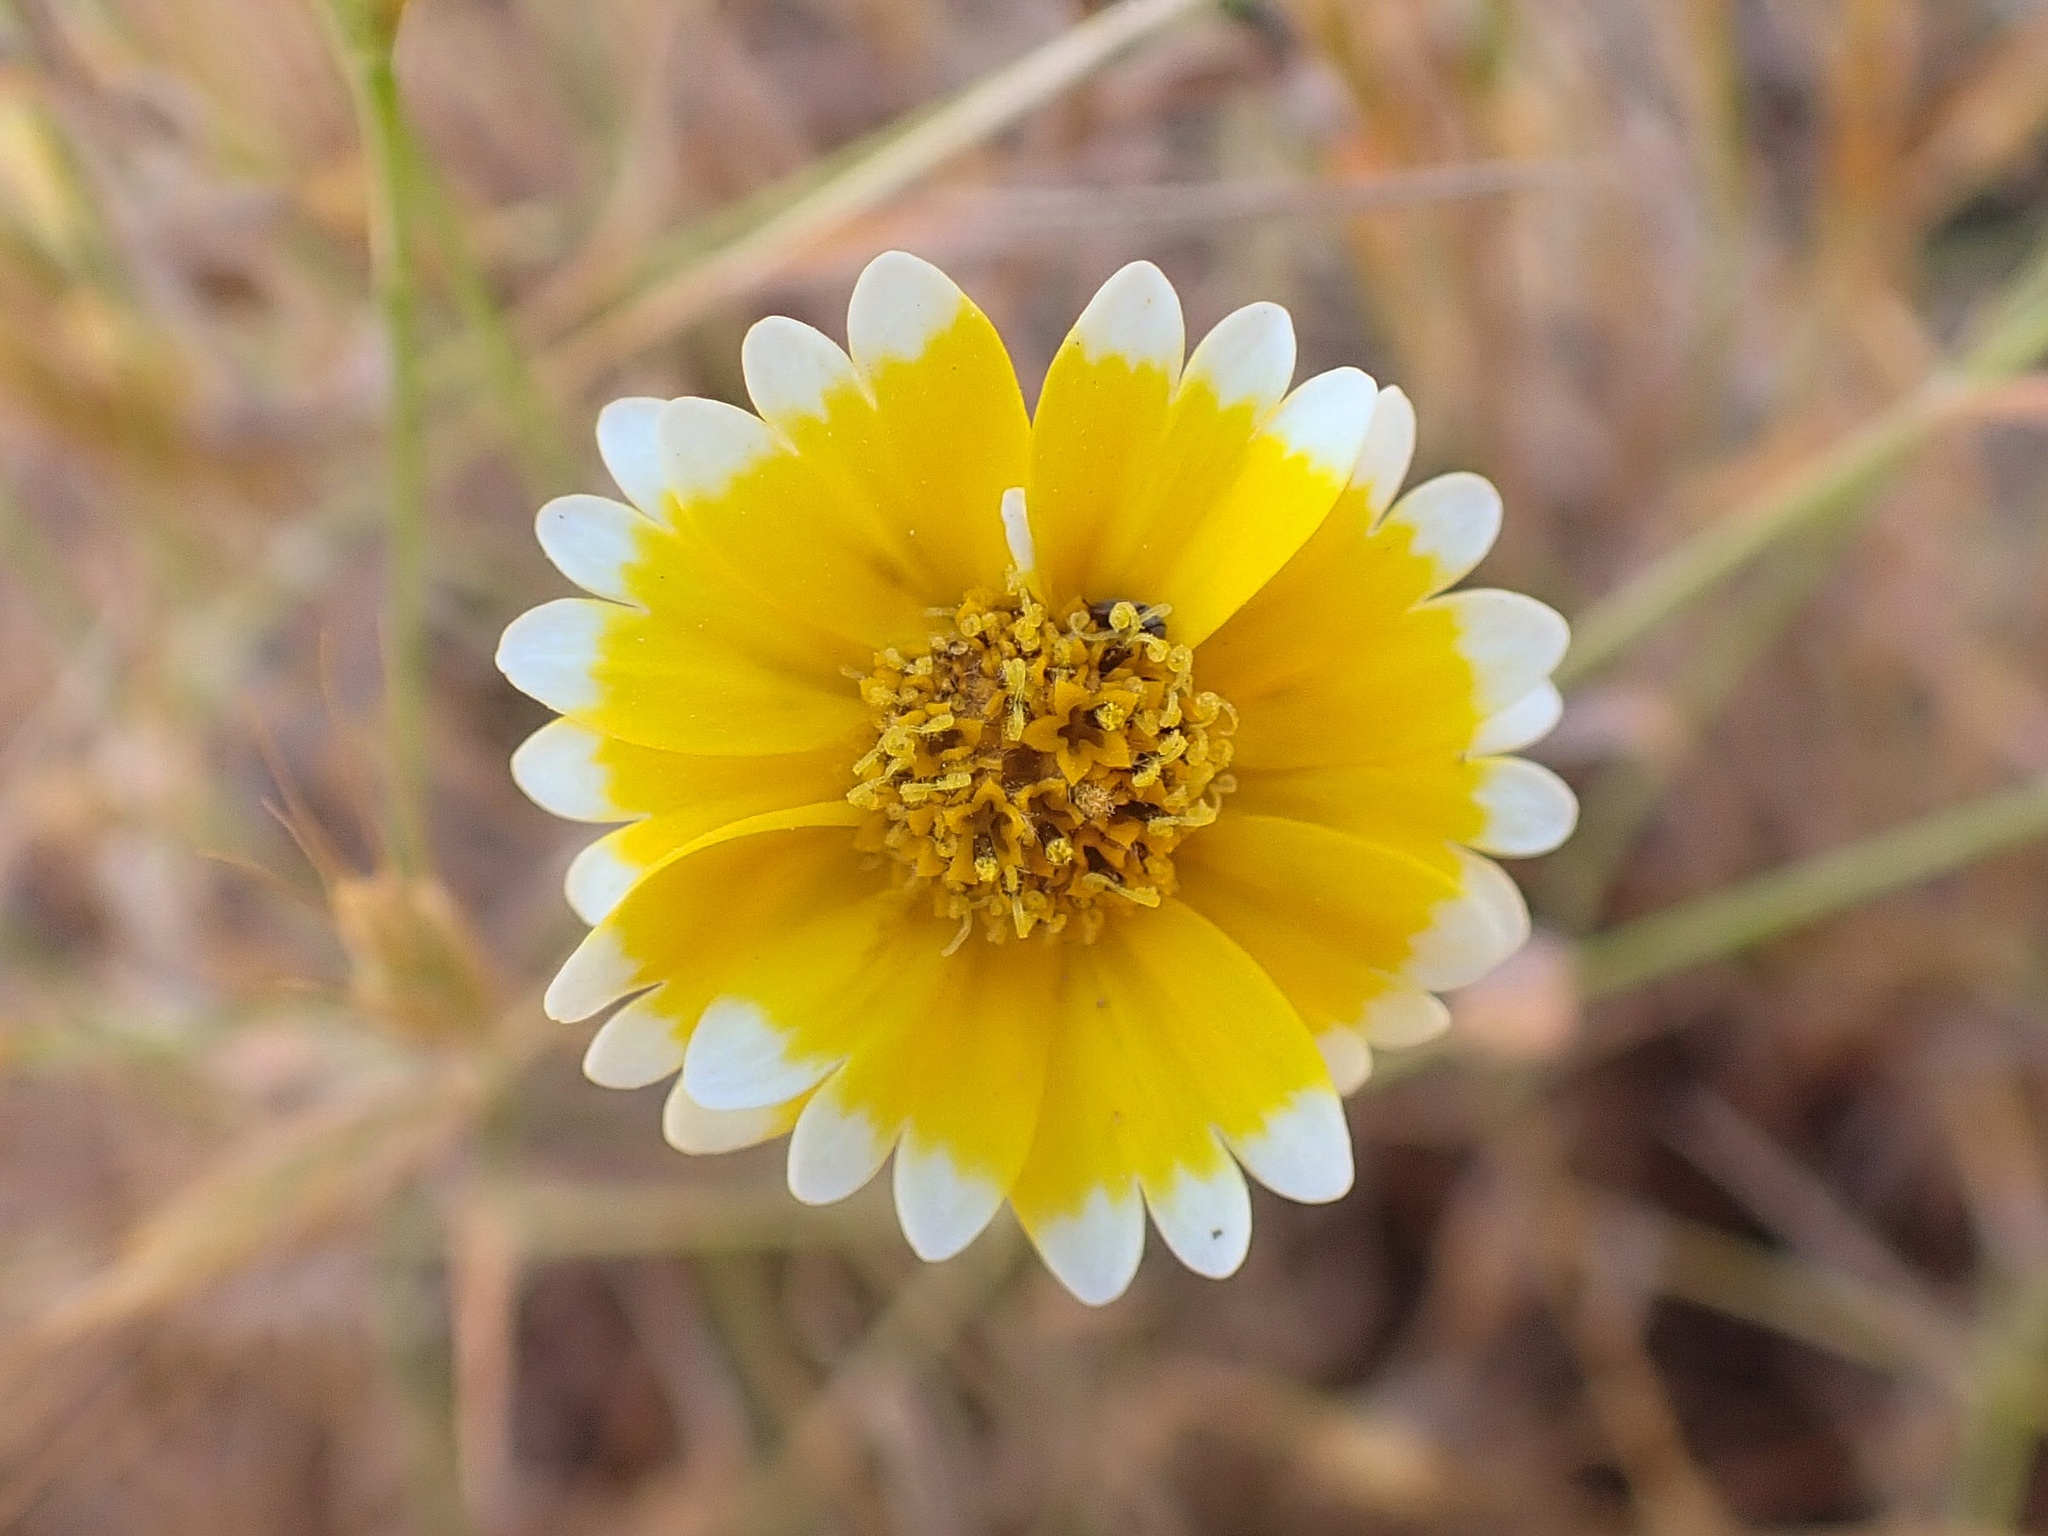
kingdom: Plantae
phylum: Tracheophyta
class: Magnoliopsida
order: Asterales
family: Asteraceae
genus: Layia
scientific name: Layia platyglossa
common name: Tidy-tips
